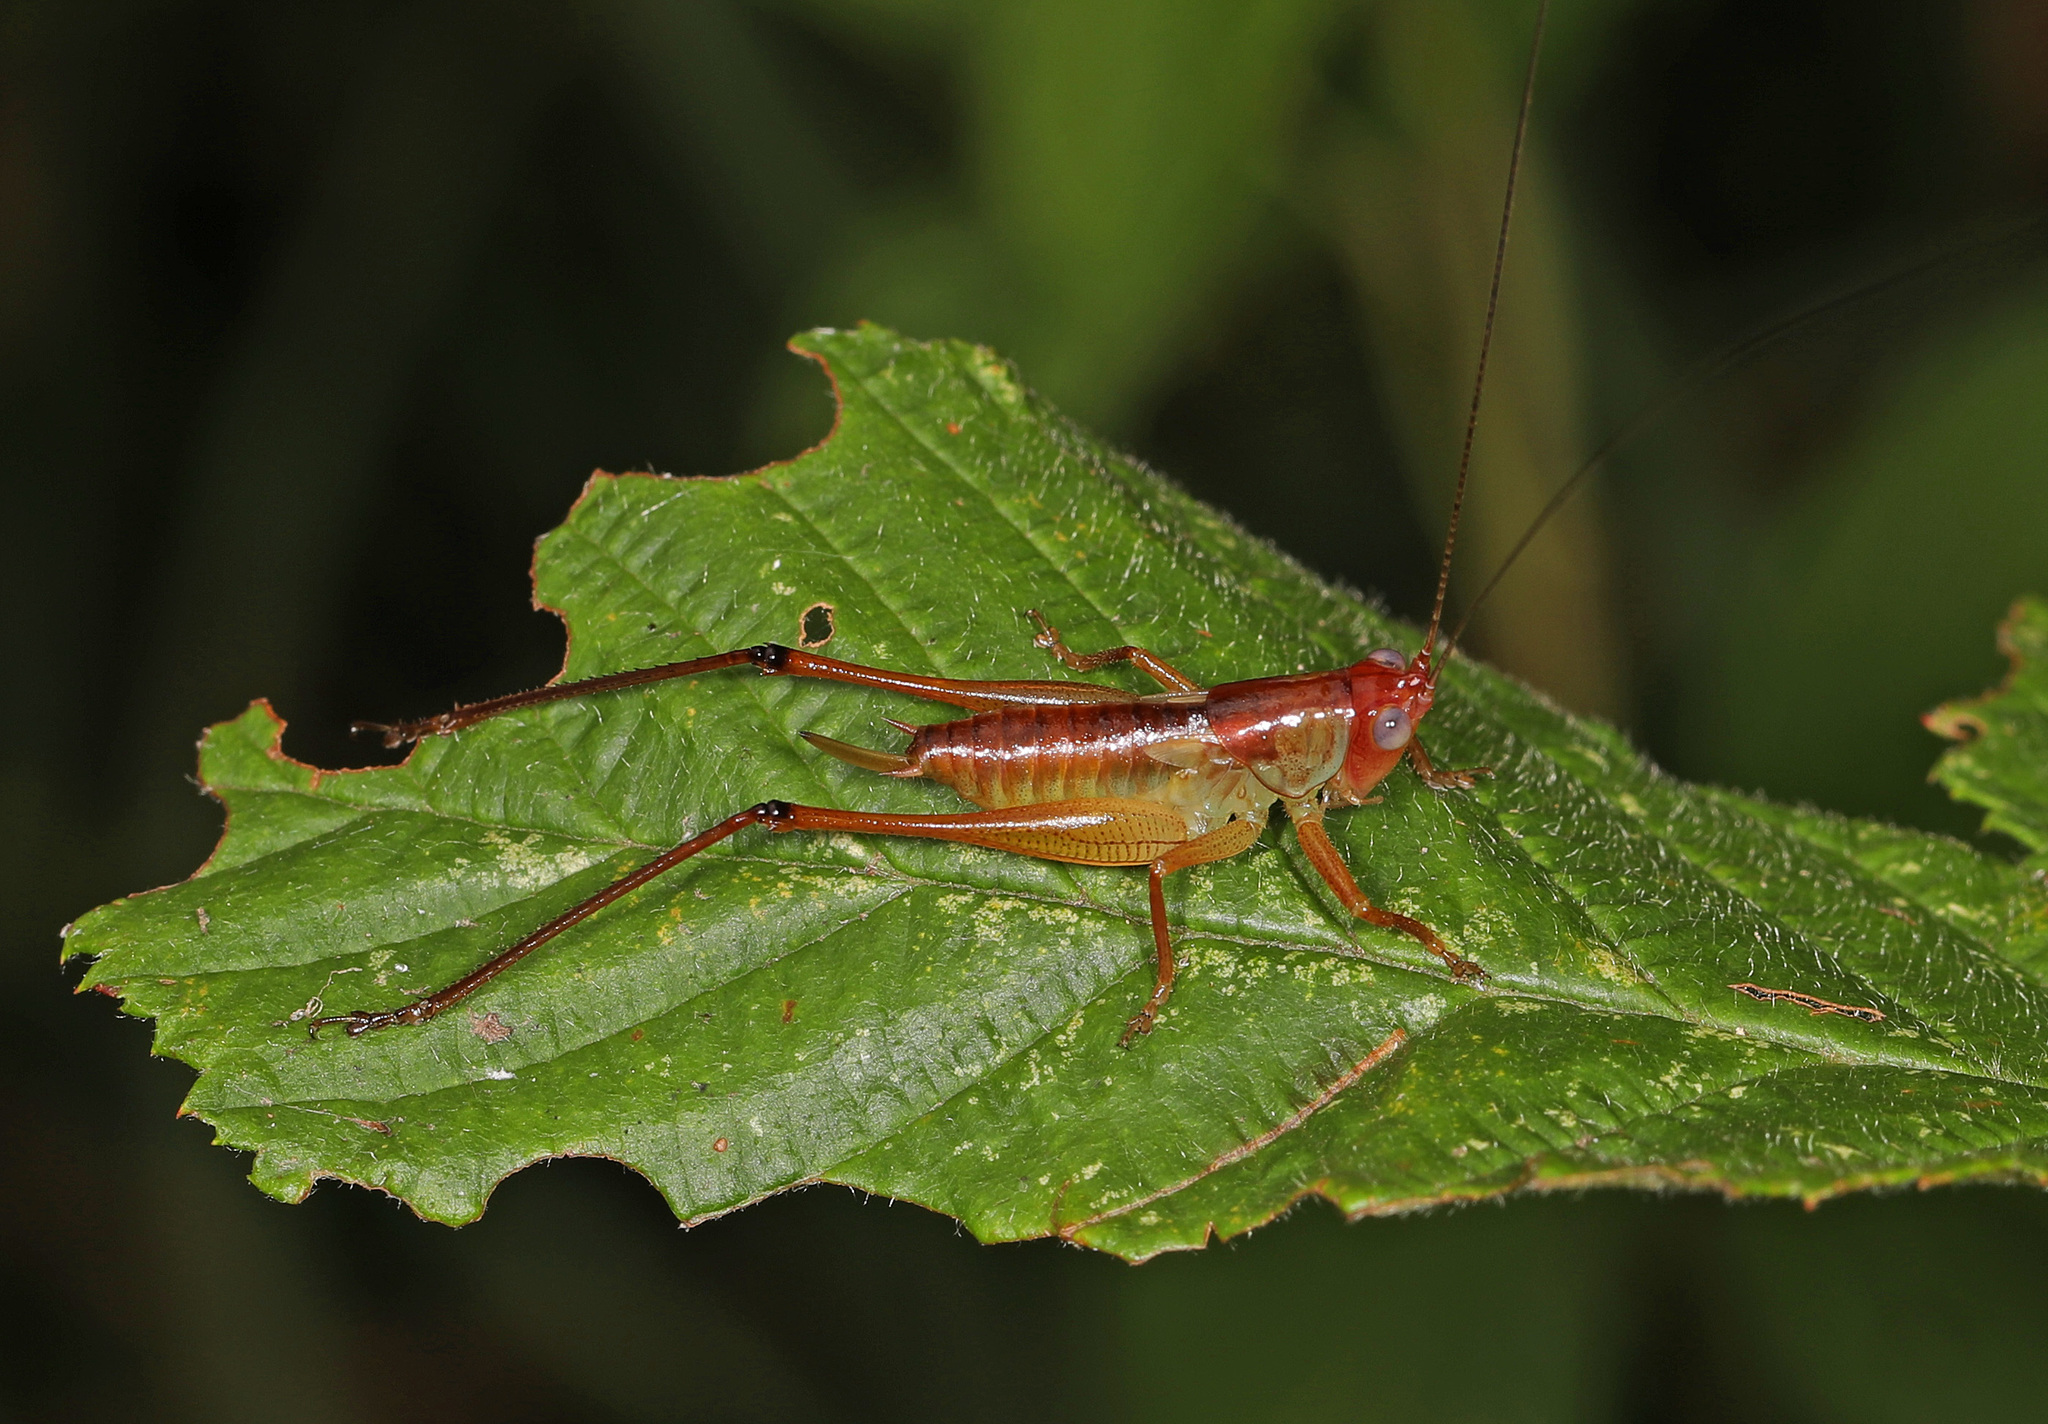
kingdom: Animalia
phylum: Arthropoda
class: Insecta
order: Orthoptera
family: Tettigoniidae
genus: Orchelimum
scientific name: Orchelimum pulchellum
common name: Handsome meadow katydid
